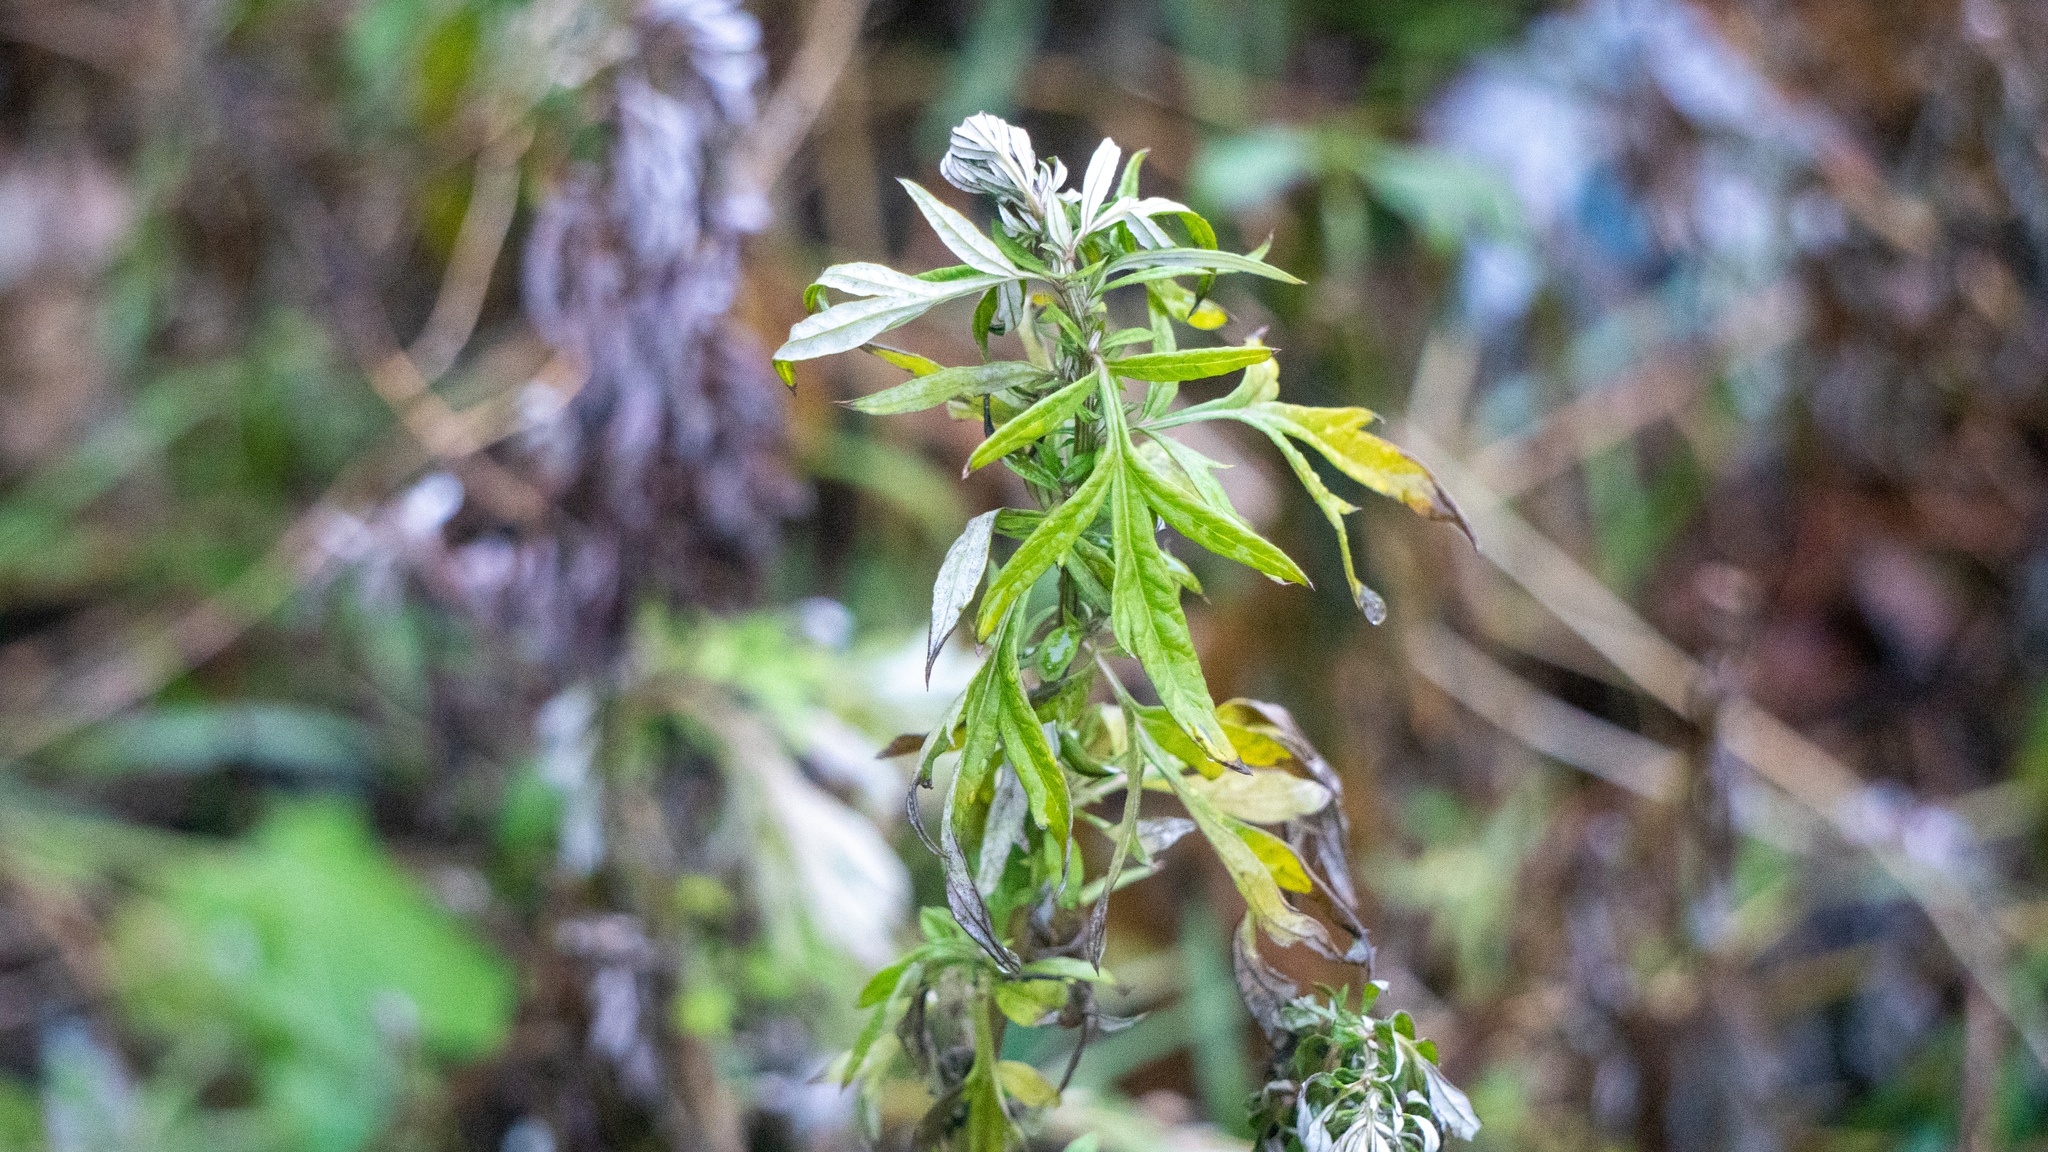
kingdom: Plantae
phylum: Tracheophyta
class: Magnoliopsida
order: Asterales
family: Asteraceae
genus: Artemisia
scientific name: Artemisia vulgaris
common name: Mugwort
